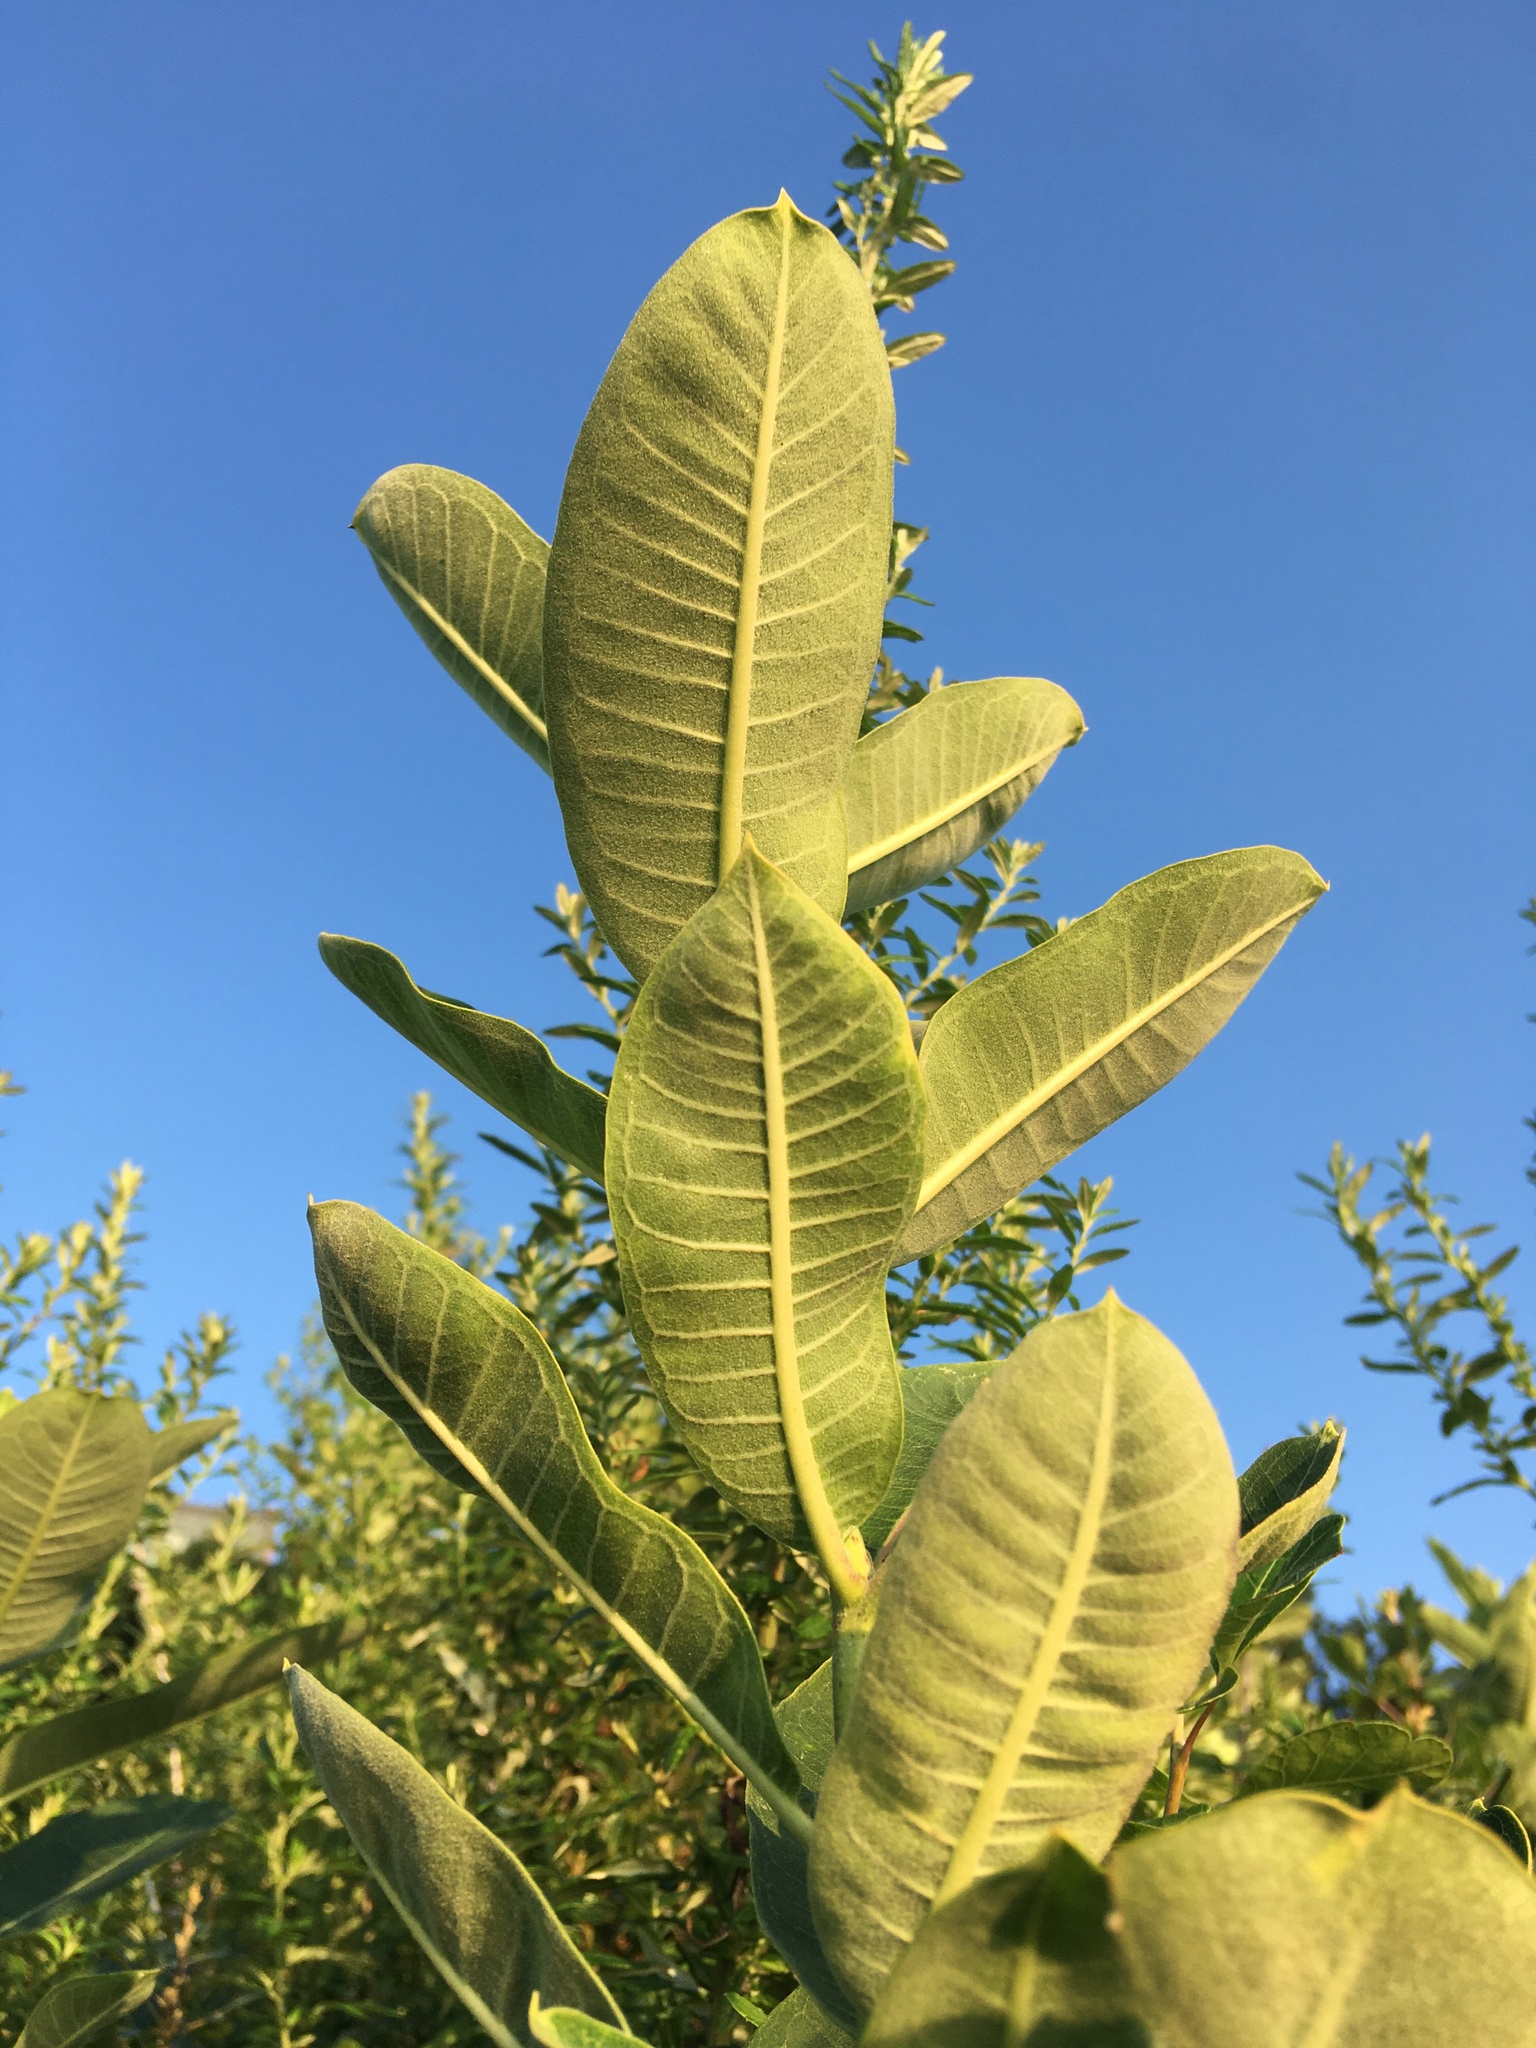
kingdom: Plantae
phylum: Tracheophyta
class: Magnoliopsida
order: Gentianales
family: Apocynaceae
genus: Asclepias
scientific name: Asclepias syriaca
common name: Common milkweed
